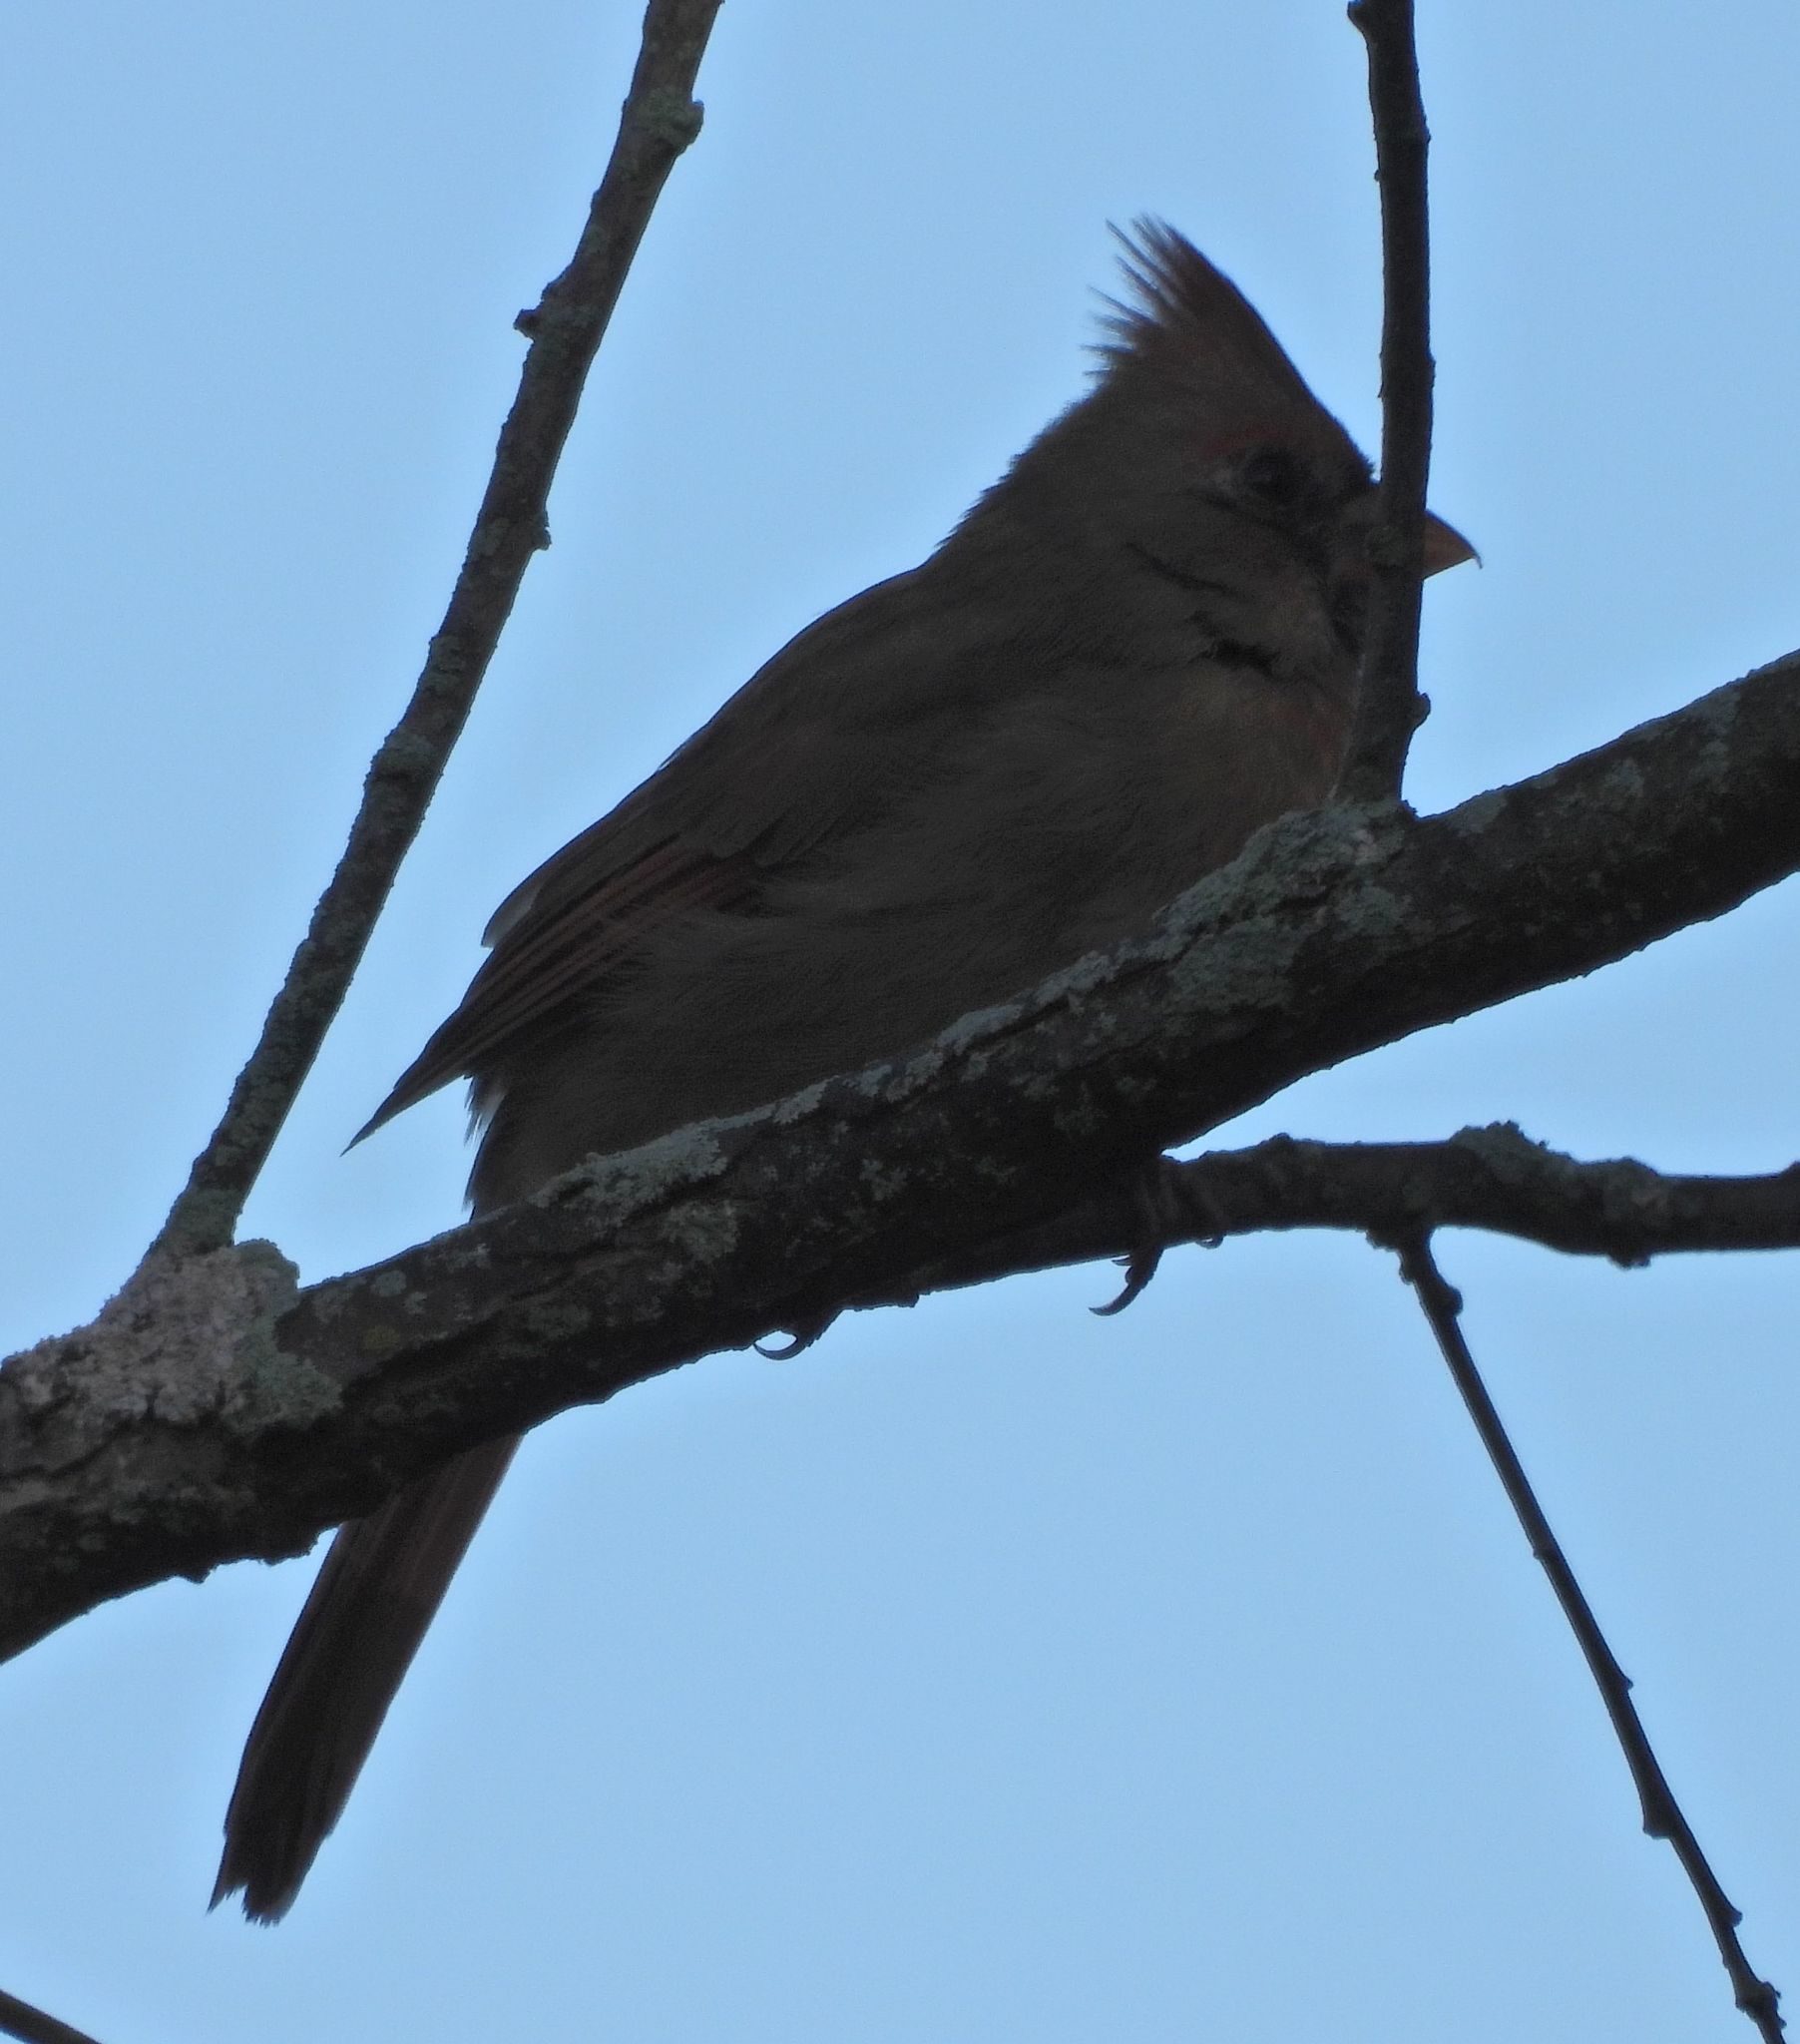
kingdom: Animalia
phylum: Chordata
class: Aves
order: Passeriformes
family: Cardinalidae
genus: Cardinalis
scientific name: Cardinalis cardinalis
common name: Northern cardinal
